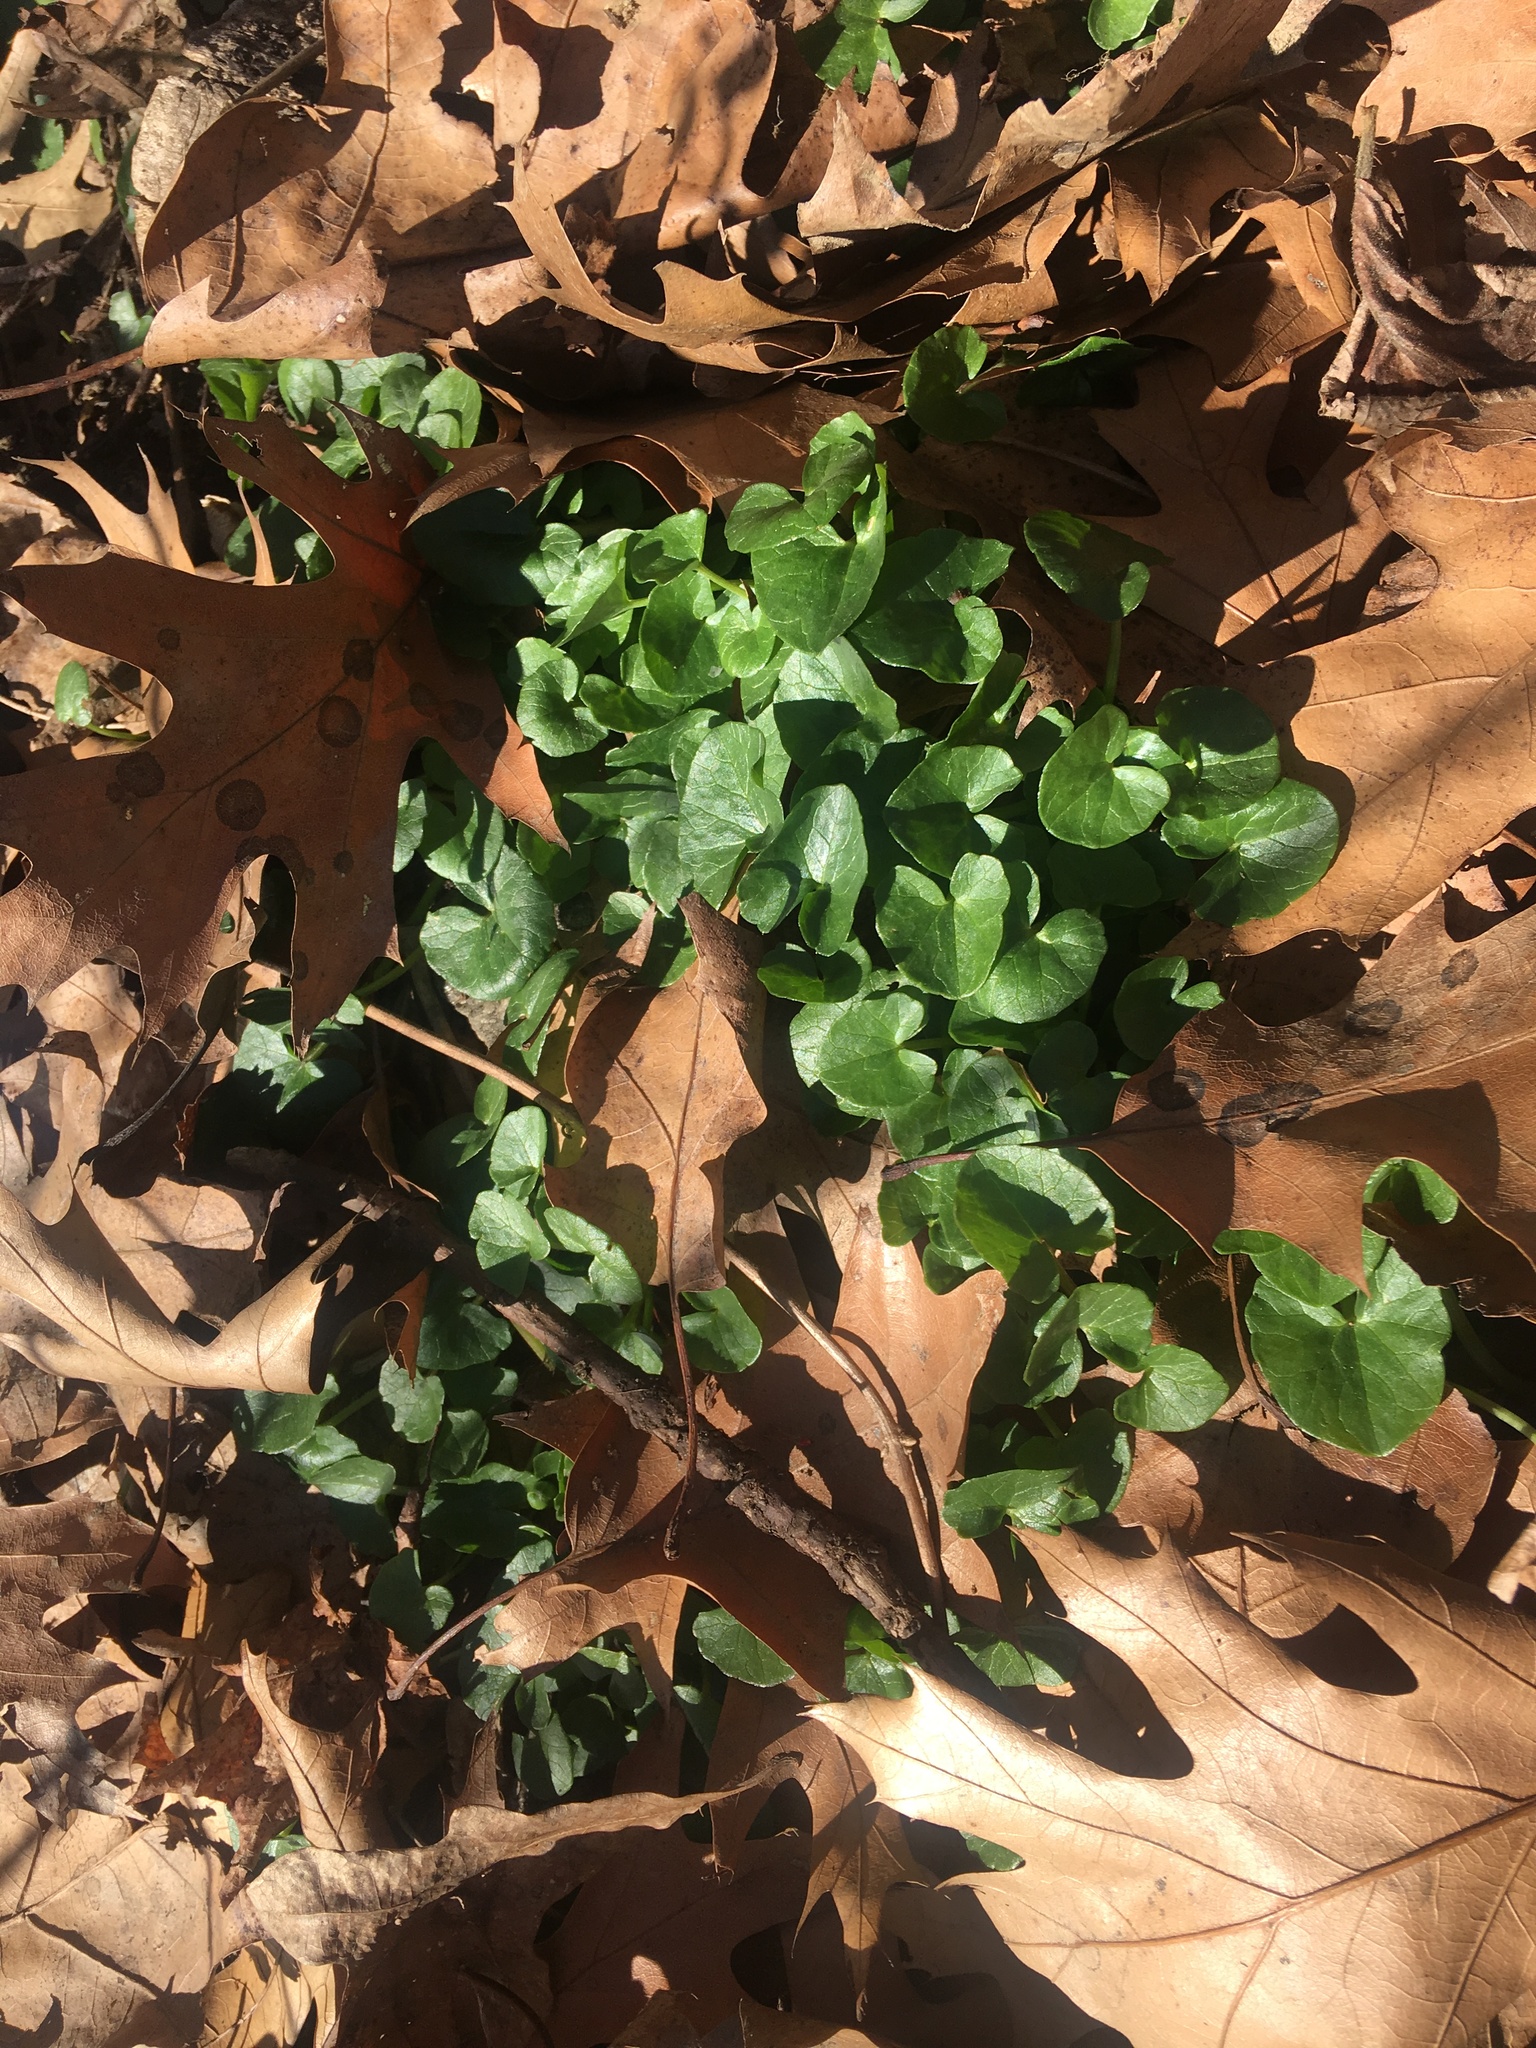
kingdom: Plantae
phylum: Tracheophyta
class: Magnoliopsida
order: Ranunculales
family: Ranunculaceae
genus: Ficaria
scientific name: Ficaria verna
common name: Lesser celandine
